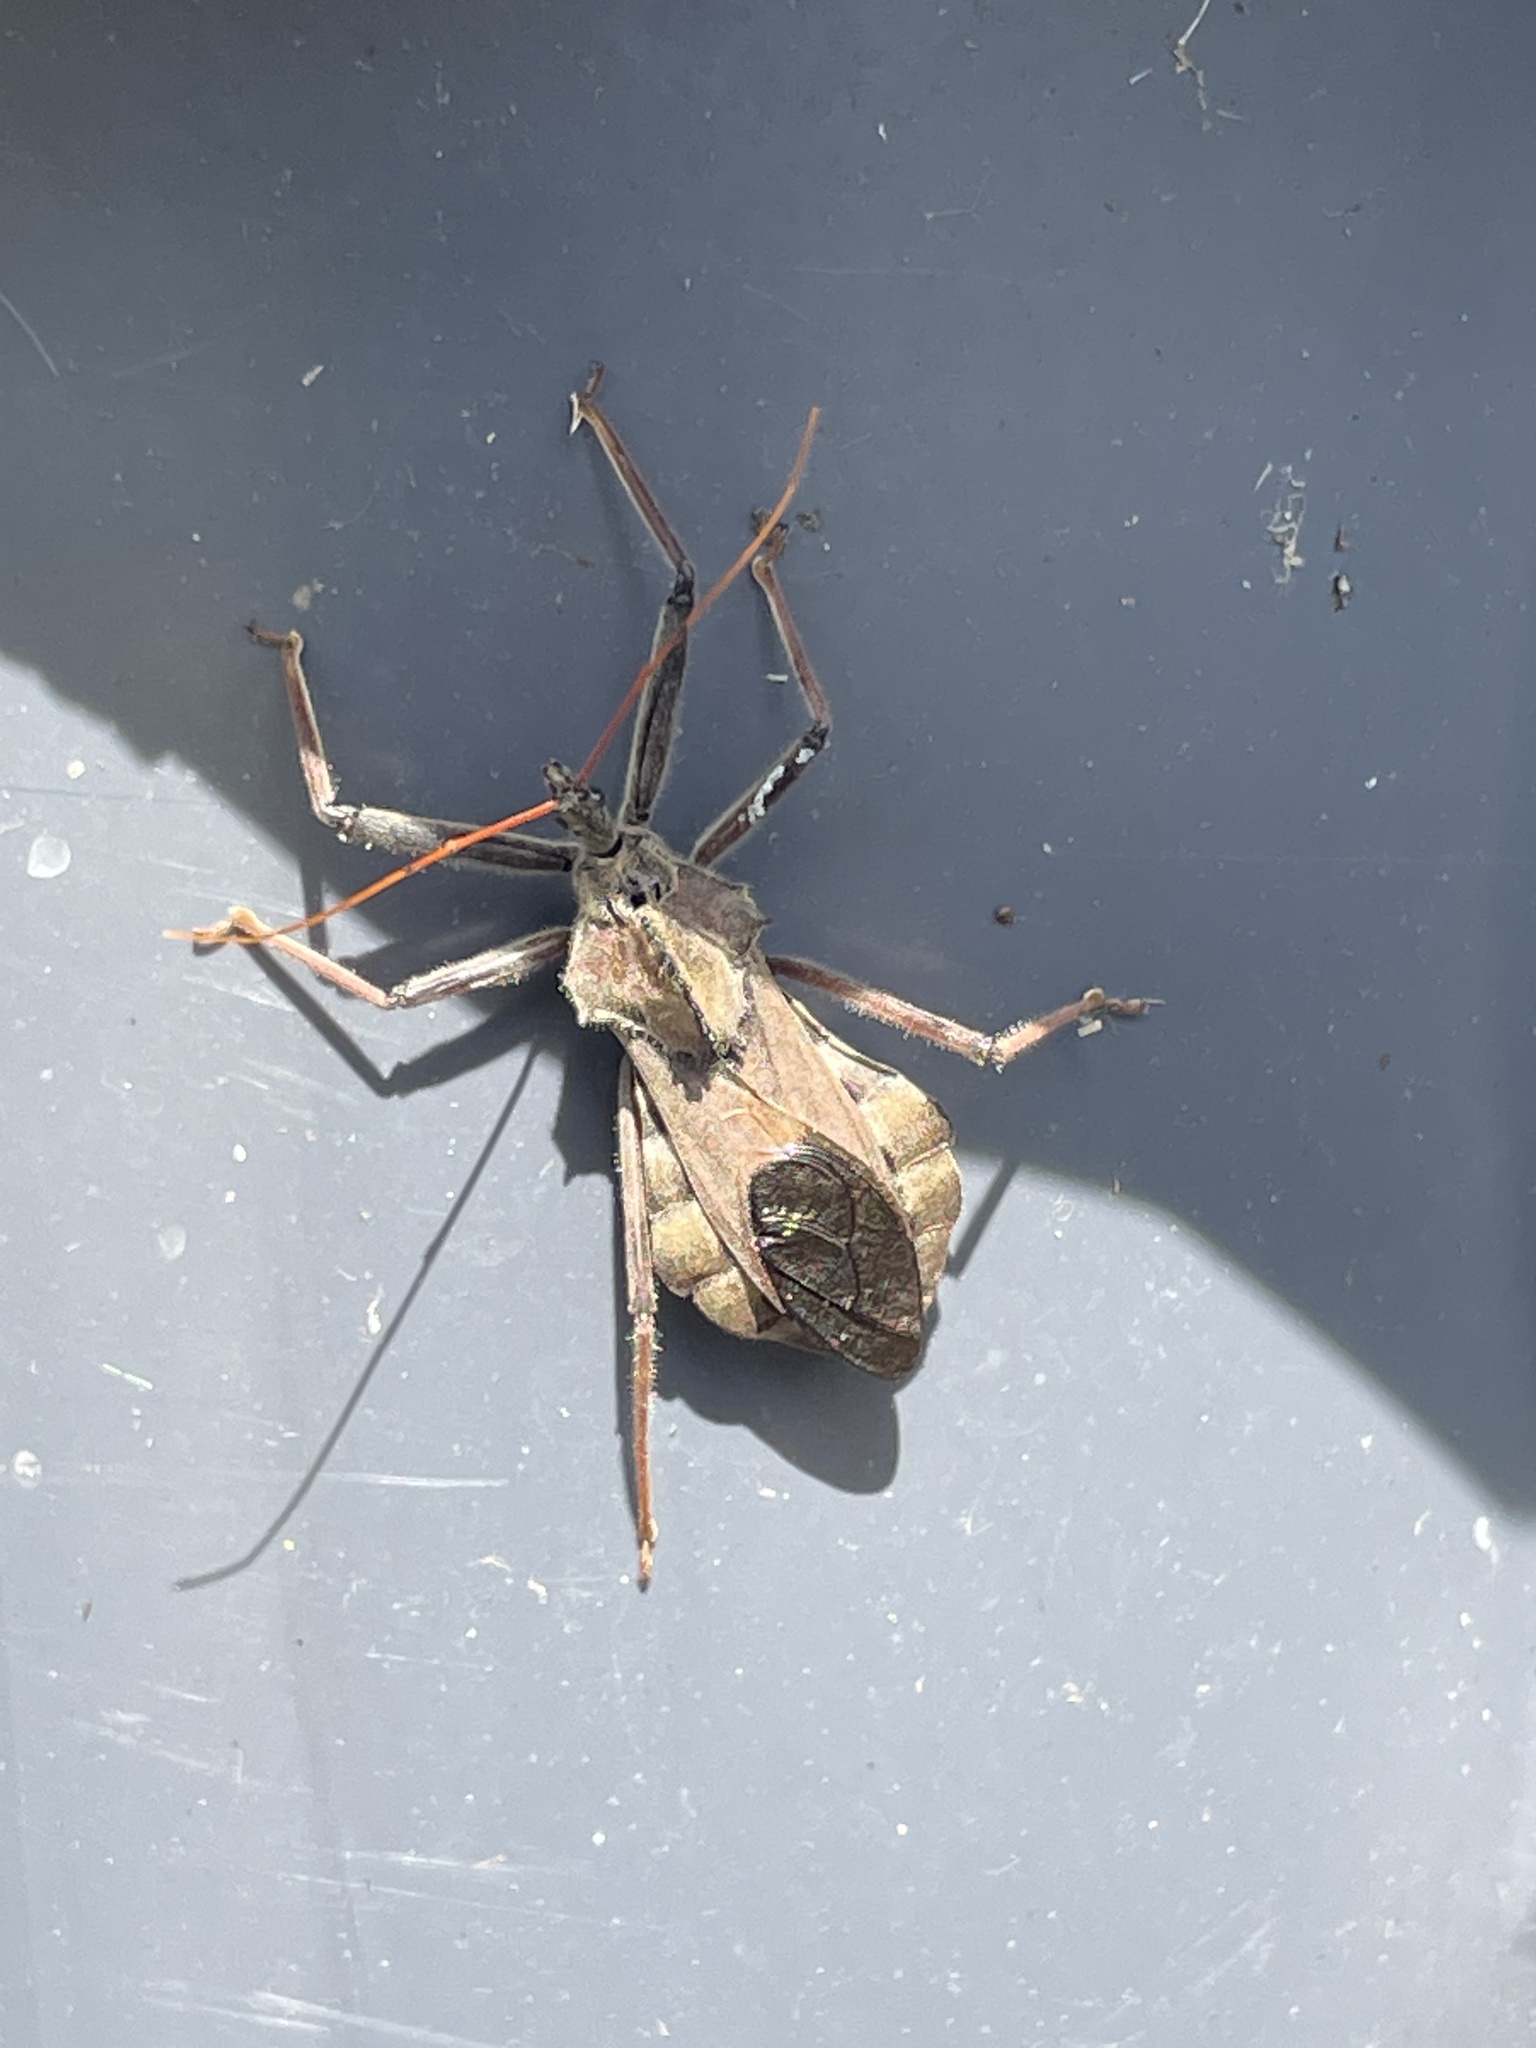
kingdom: Animalia
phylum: Arthropoda
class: Insecta
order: Hemiptera
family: Reduviidae
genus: Arilus
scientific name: Arilus cristatus
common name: North american wheel bug
